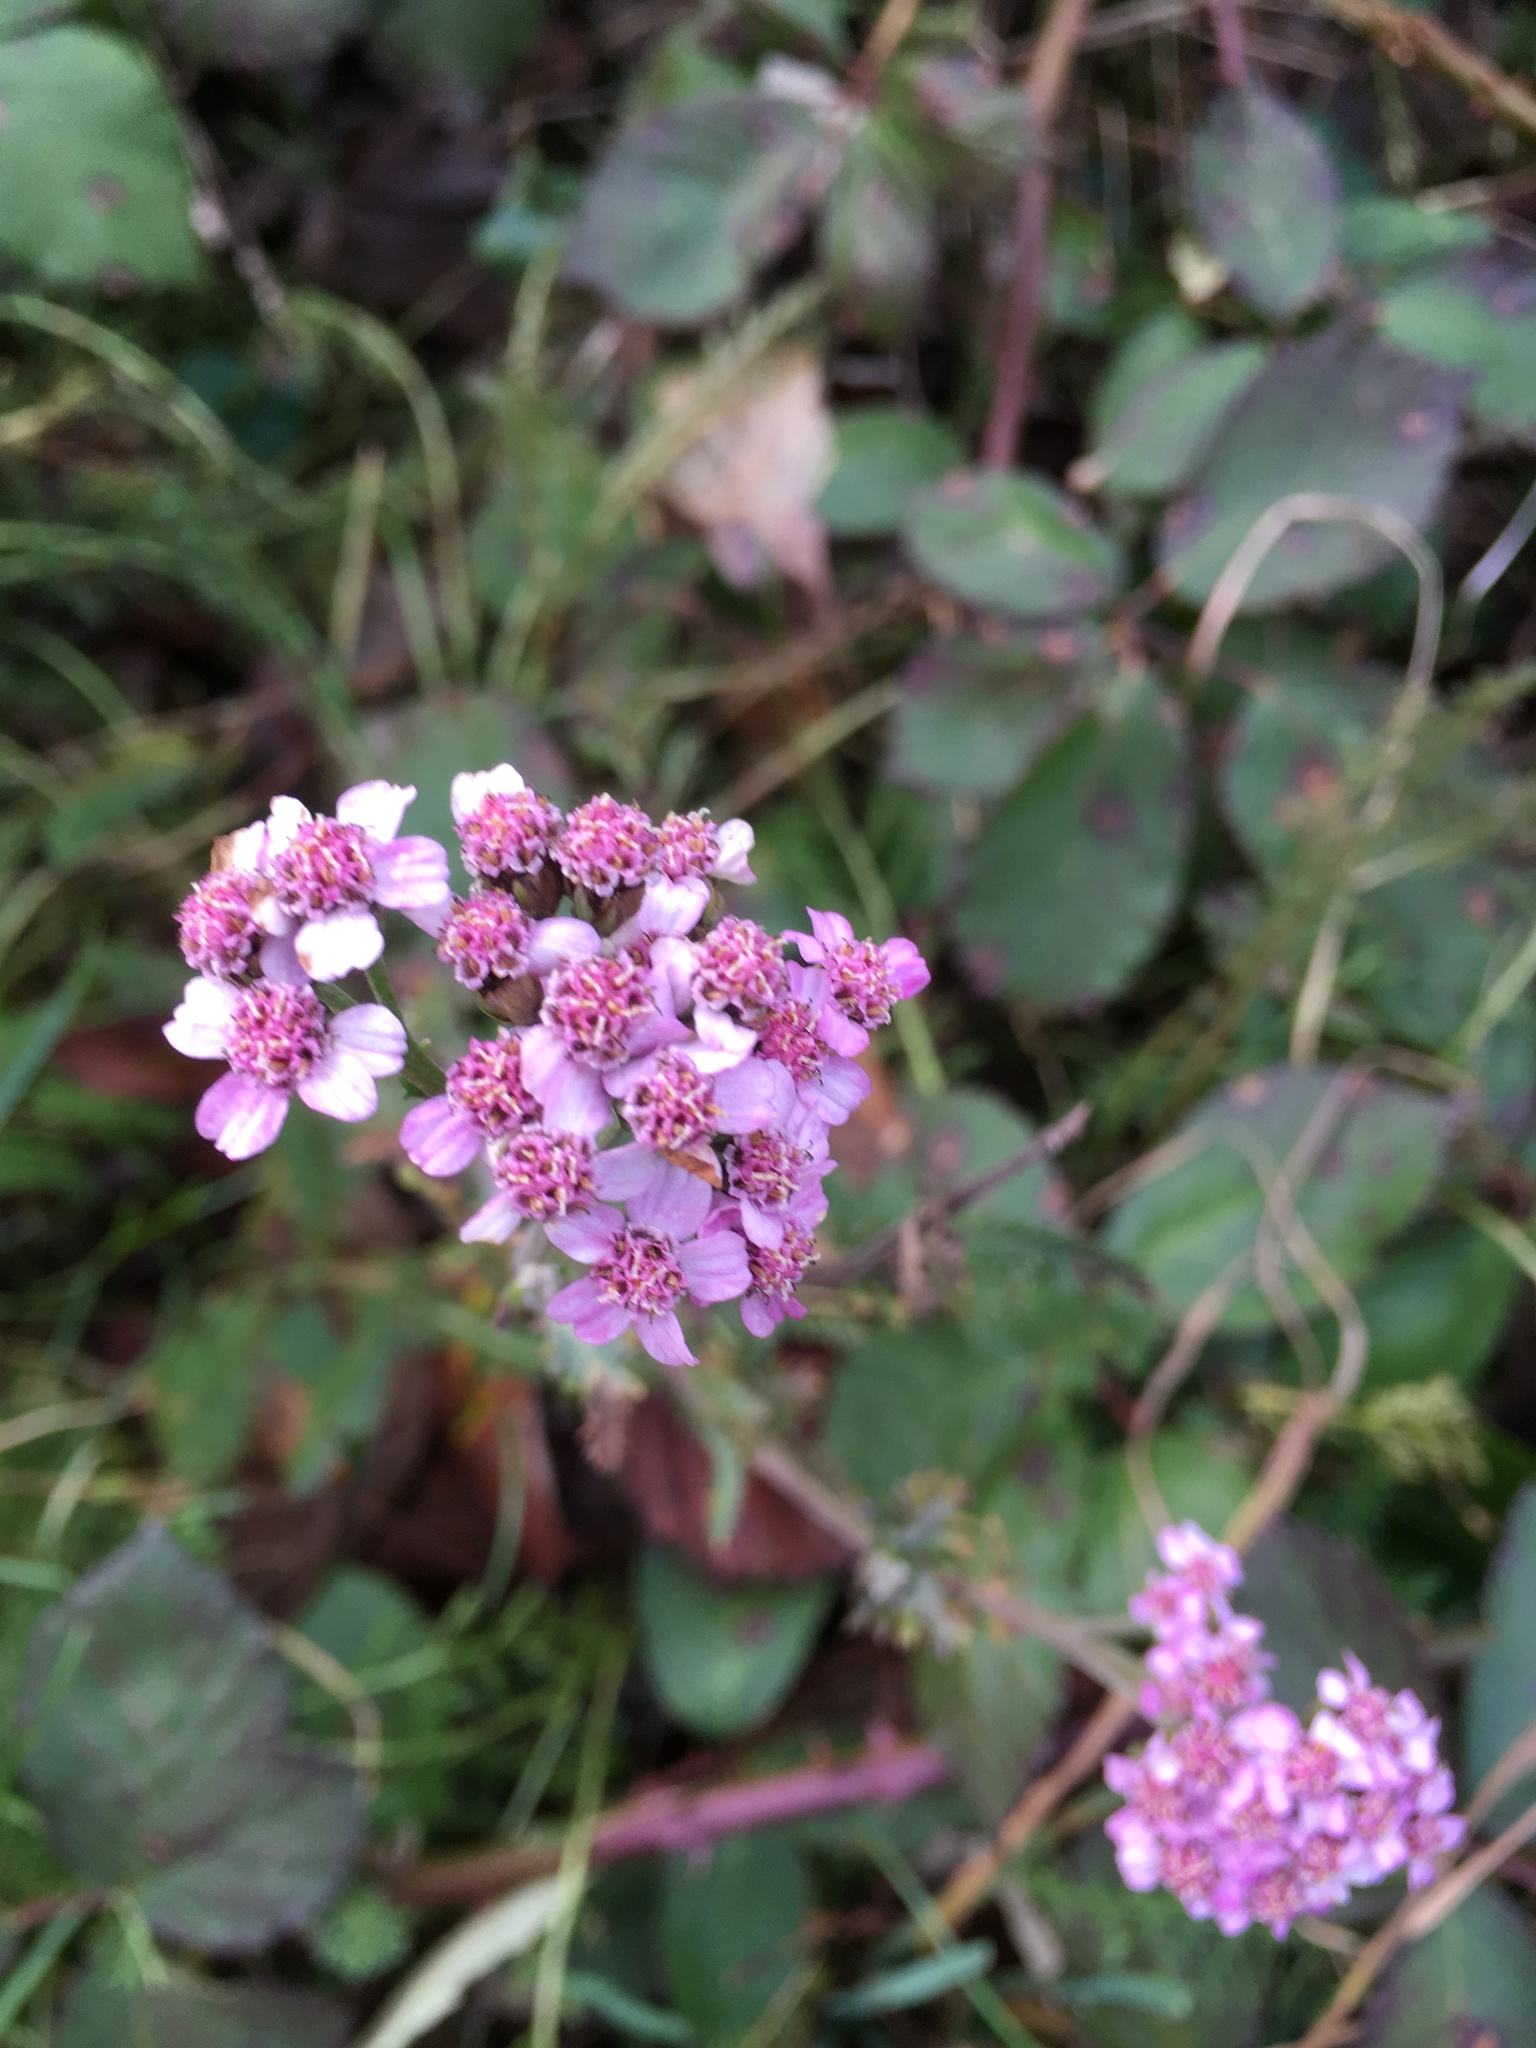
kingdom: Plantae
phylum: Tracheophyta
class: Magnoliopsida
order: Asterales
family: Asteraceae
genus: Achillea
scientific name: Achillea millefolium
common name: Yarrow
